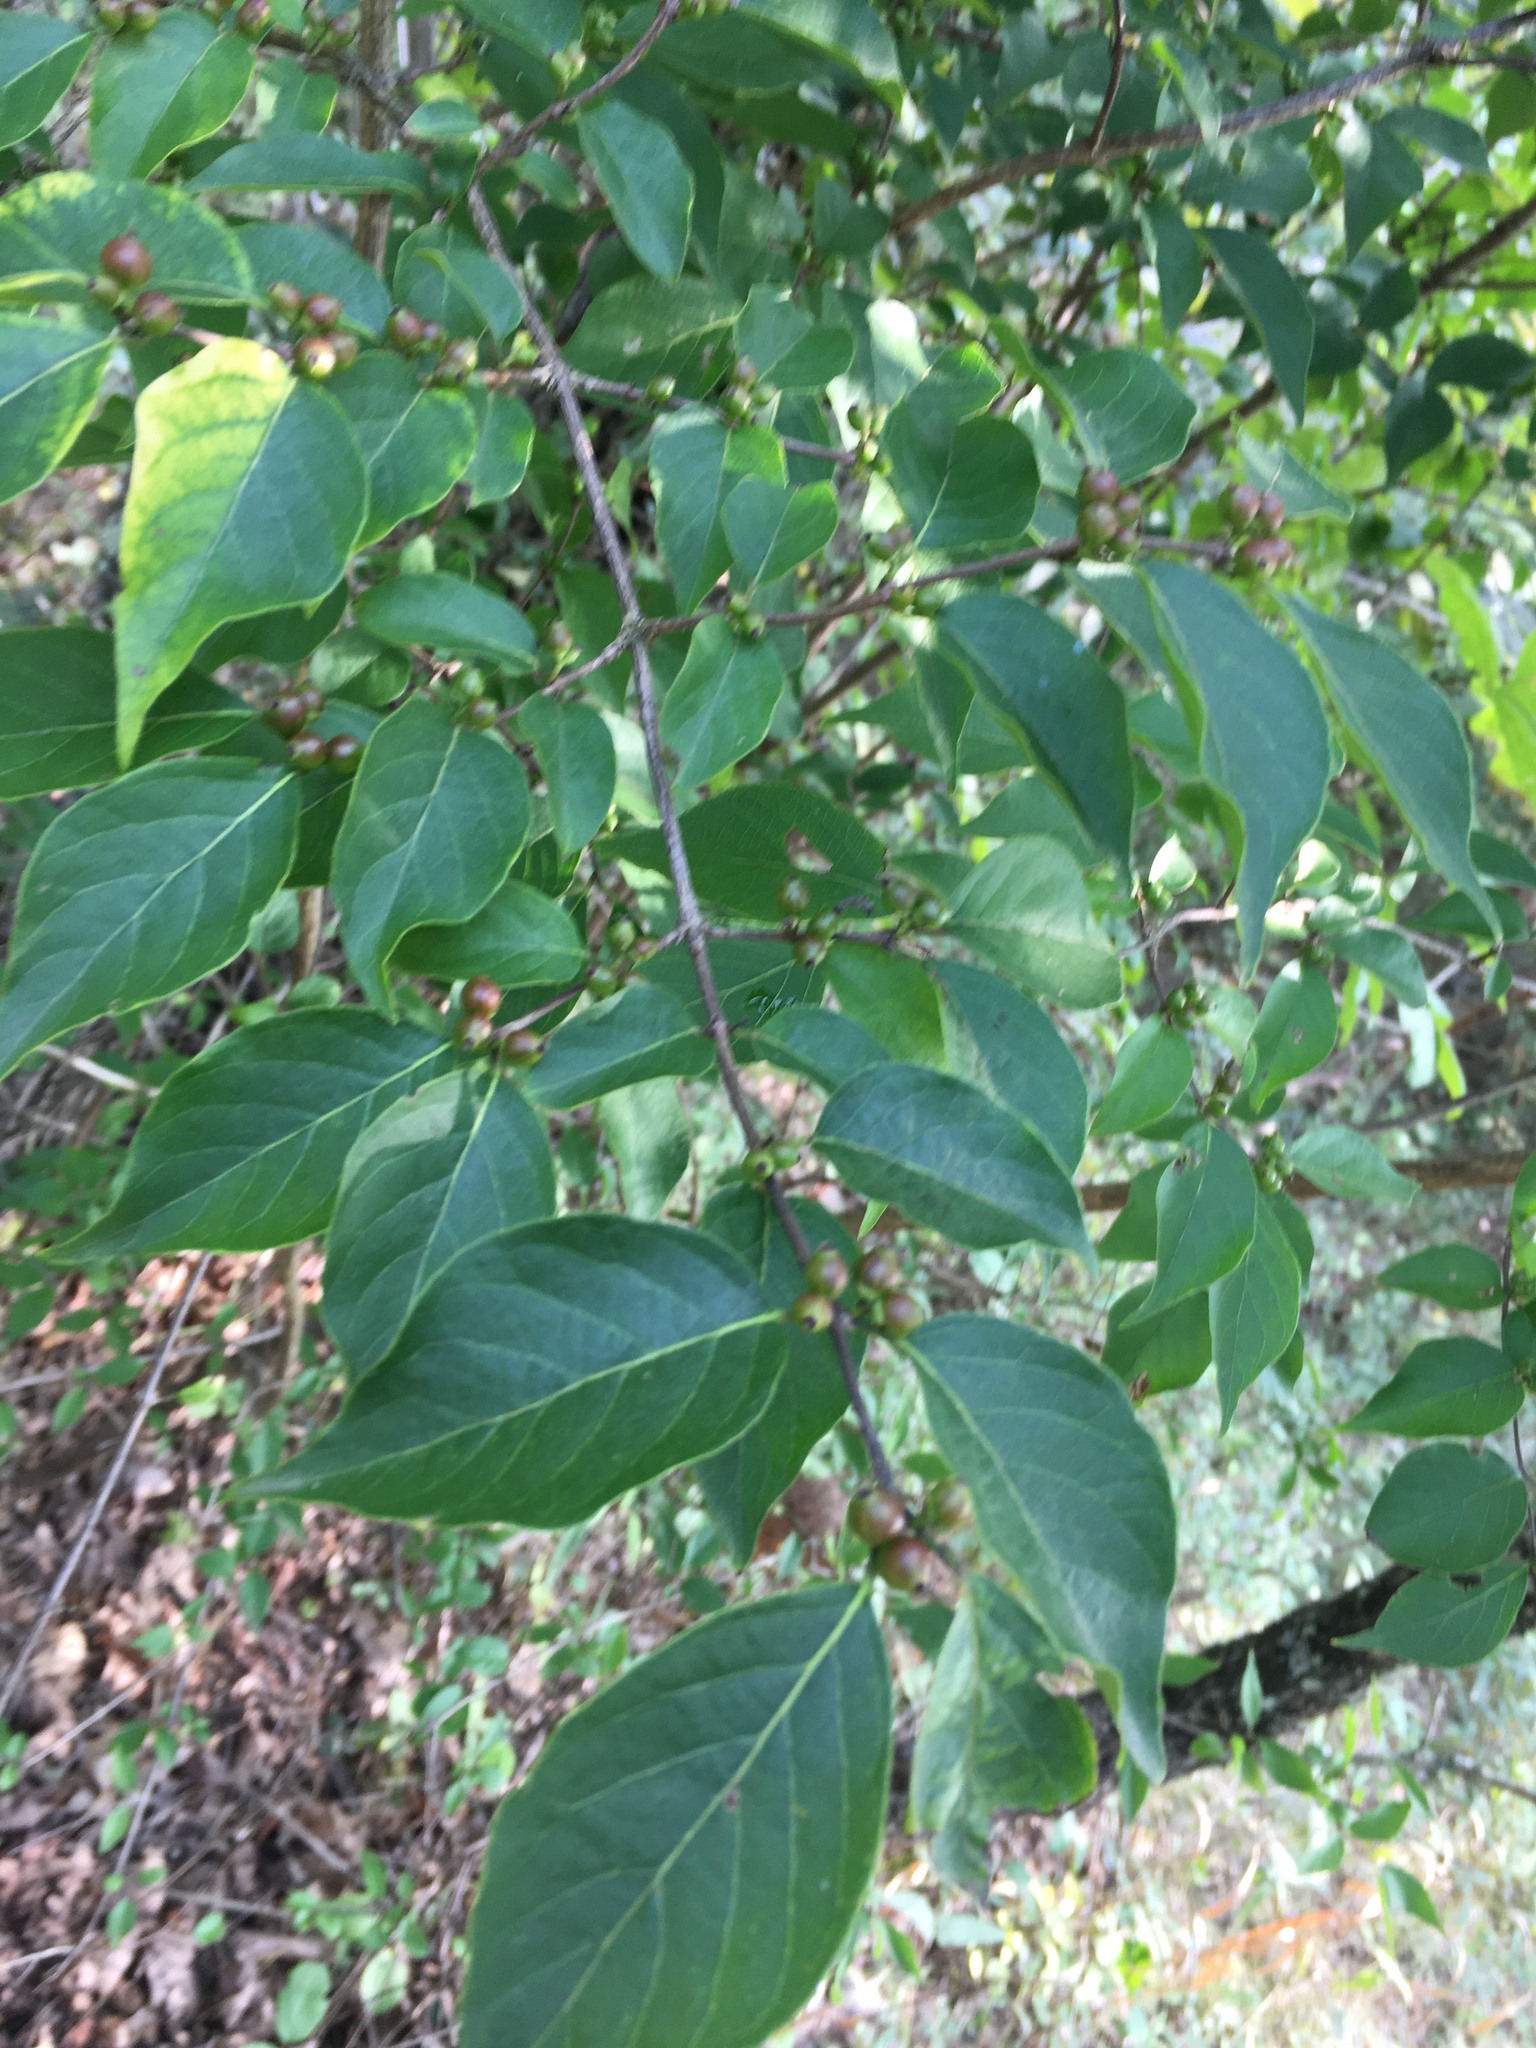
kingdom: Plantae
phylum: Tracheophyta
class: Magnoliopsida
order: Dipsacales
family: Caprifoliaceae
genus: Lonicera
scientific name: Lonicera maackii
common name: Amur honeysuckle
